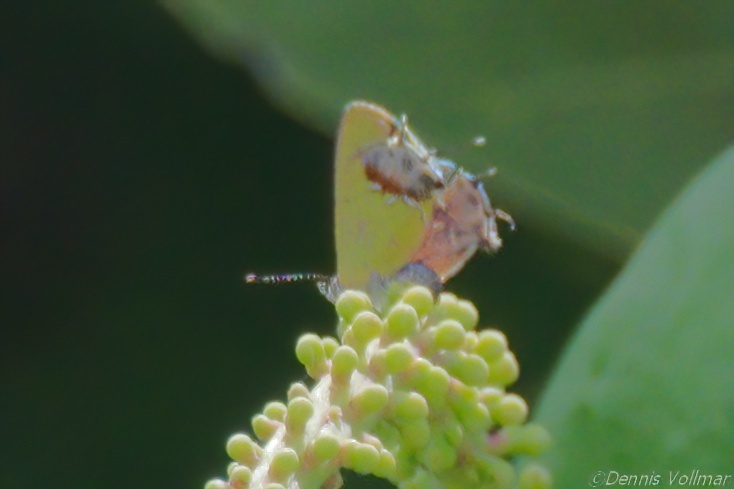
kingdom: Animalia
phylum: Arthropoda
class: Insecta
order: Lepidoptera
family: Lycaenidae
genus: Thecla
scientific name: Thecla maesites
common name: Verde azul hairstreak
